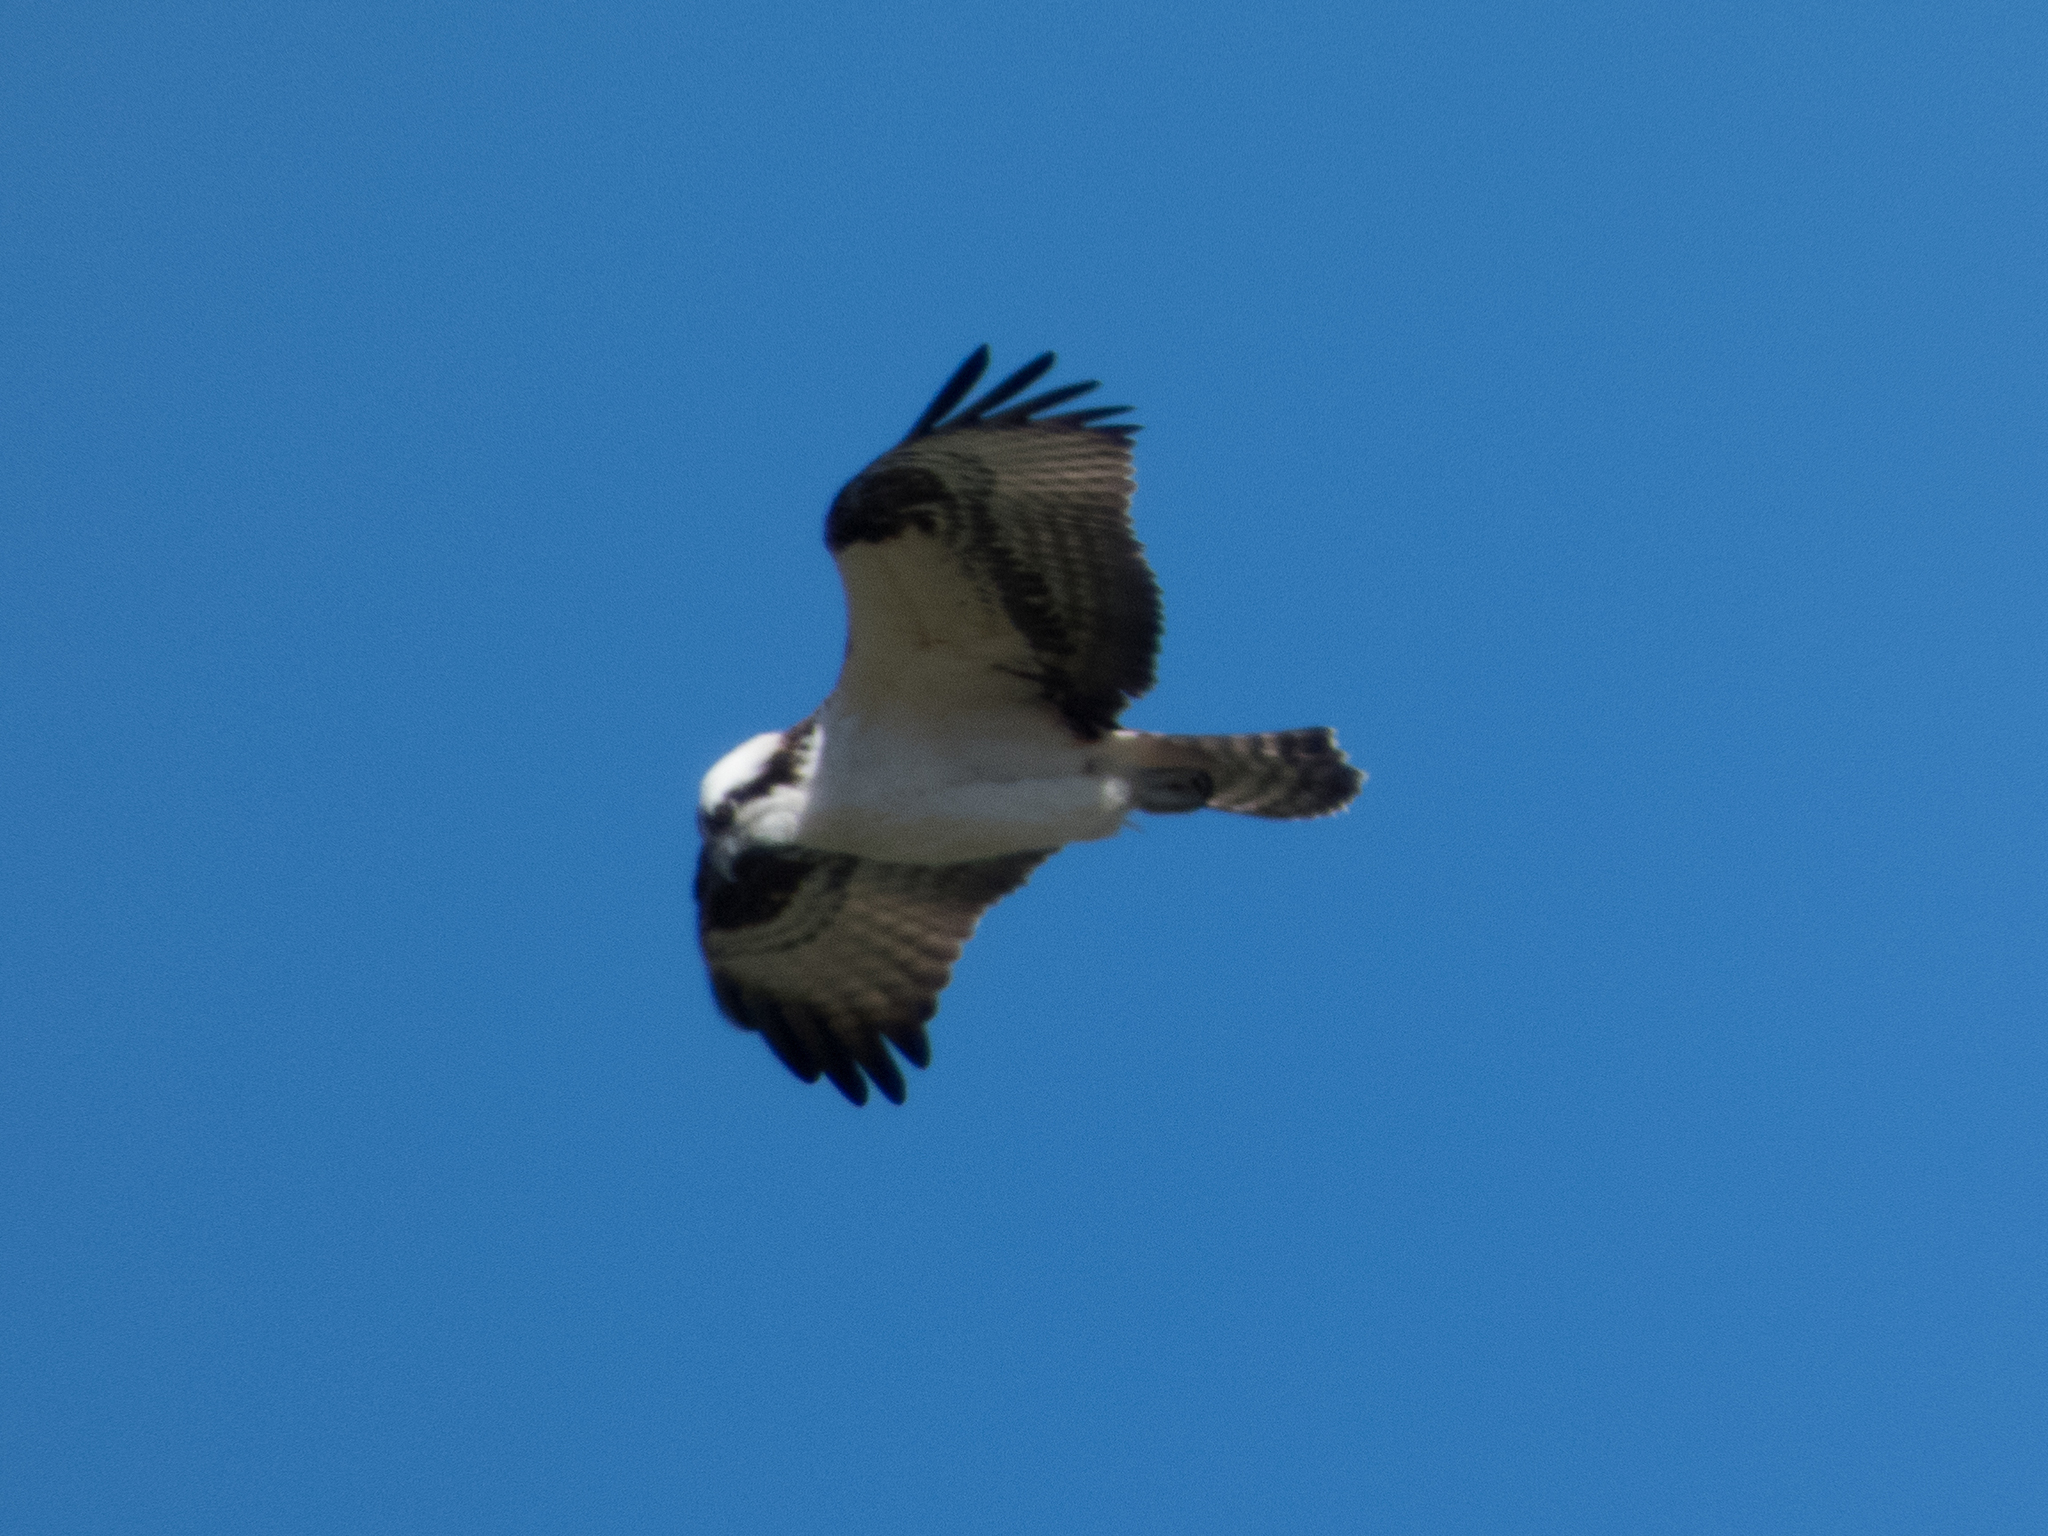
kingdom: Animalia
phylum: Chordata
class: Aves
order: Accipitriformes
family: Pandionidae
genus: Pandion
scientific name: Pandion haliaetus
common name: Osprey
